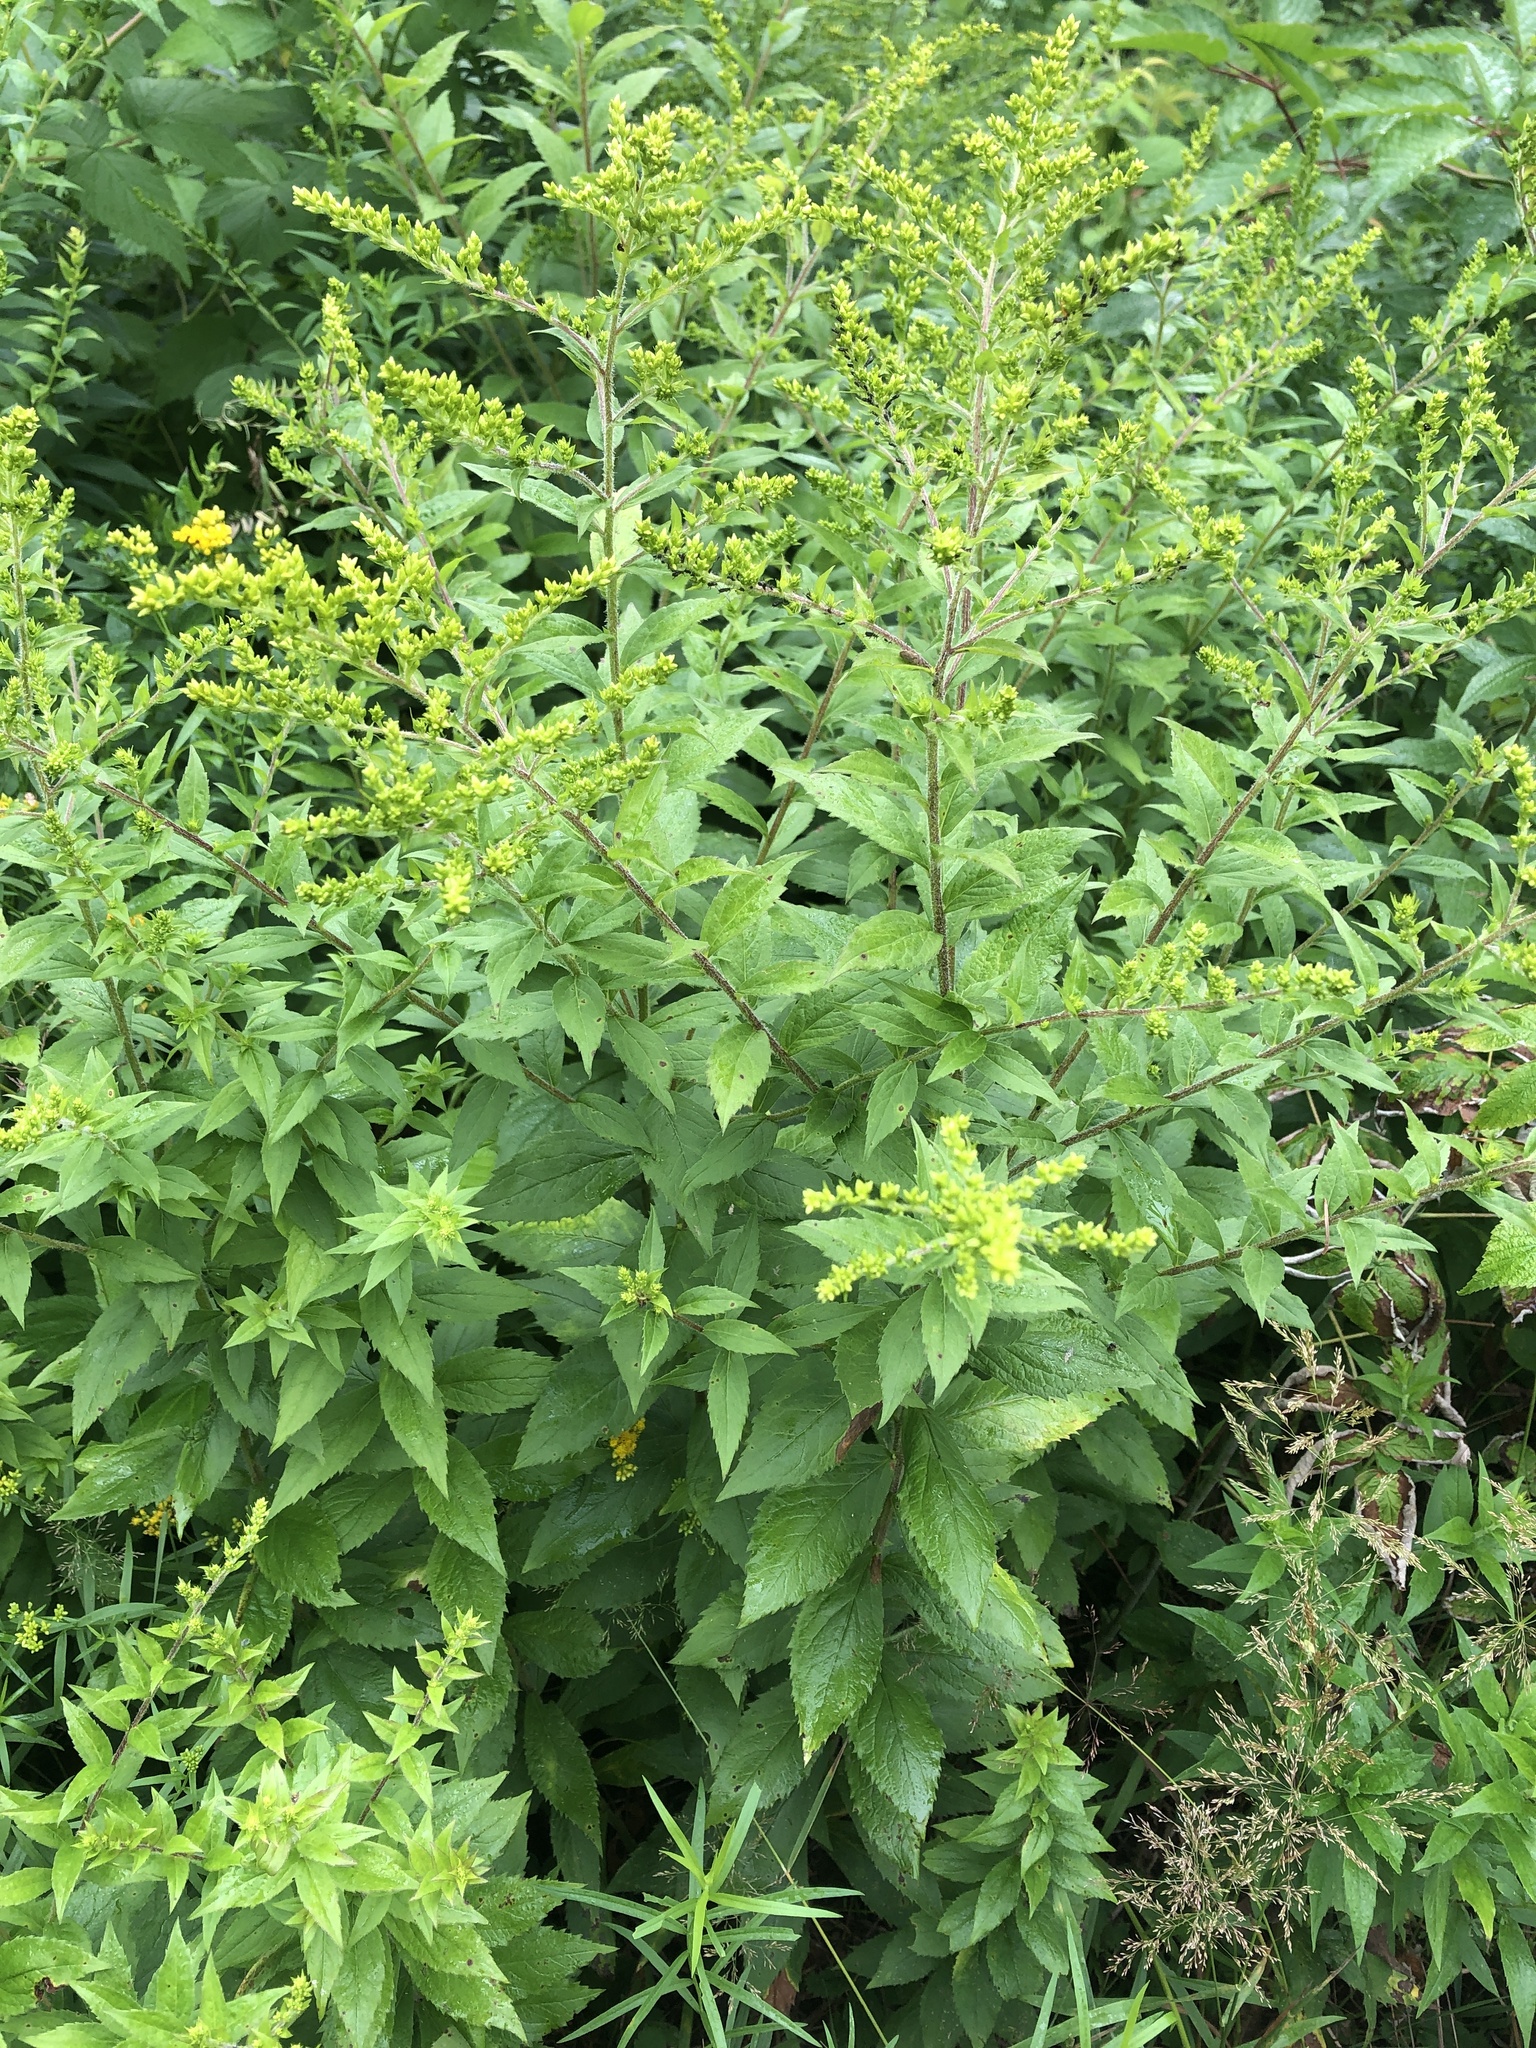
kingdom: Plantae
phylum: Tracheophyta
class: Magnoliopsida
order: Asterales
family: Asteraceae
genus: Solidago
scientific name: Solidago rugosa
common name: Rough-stemmed goldenrod
